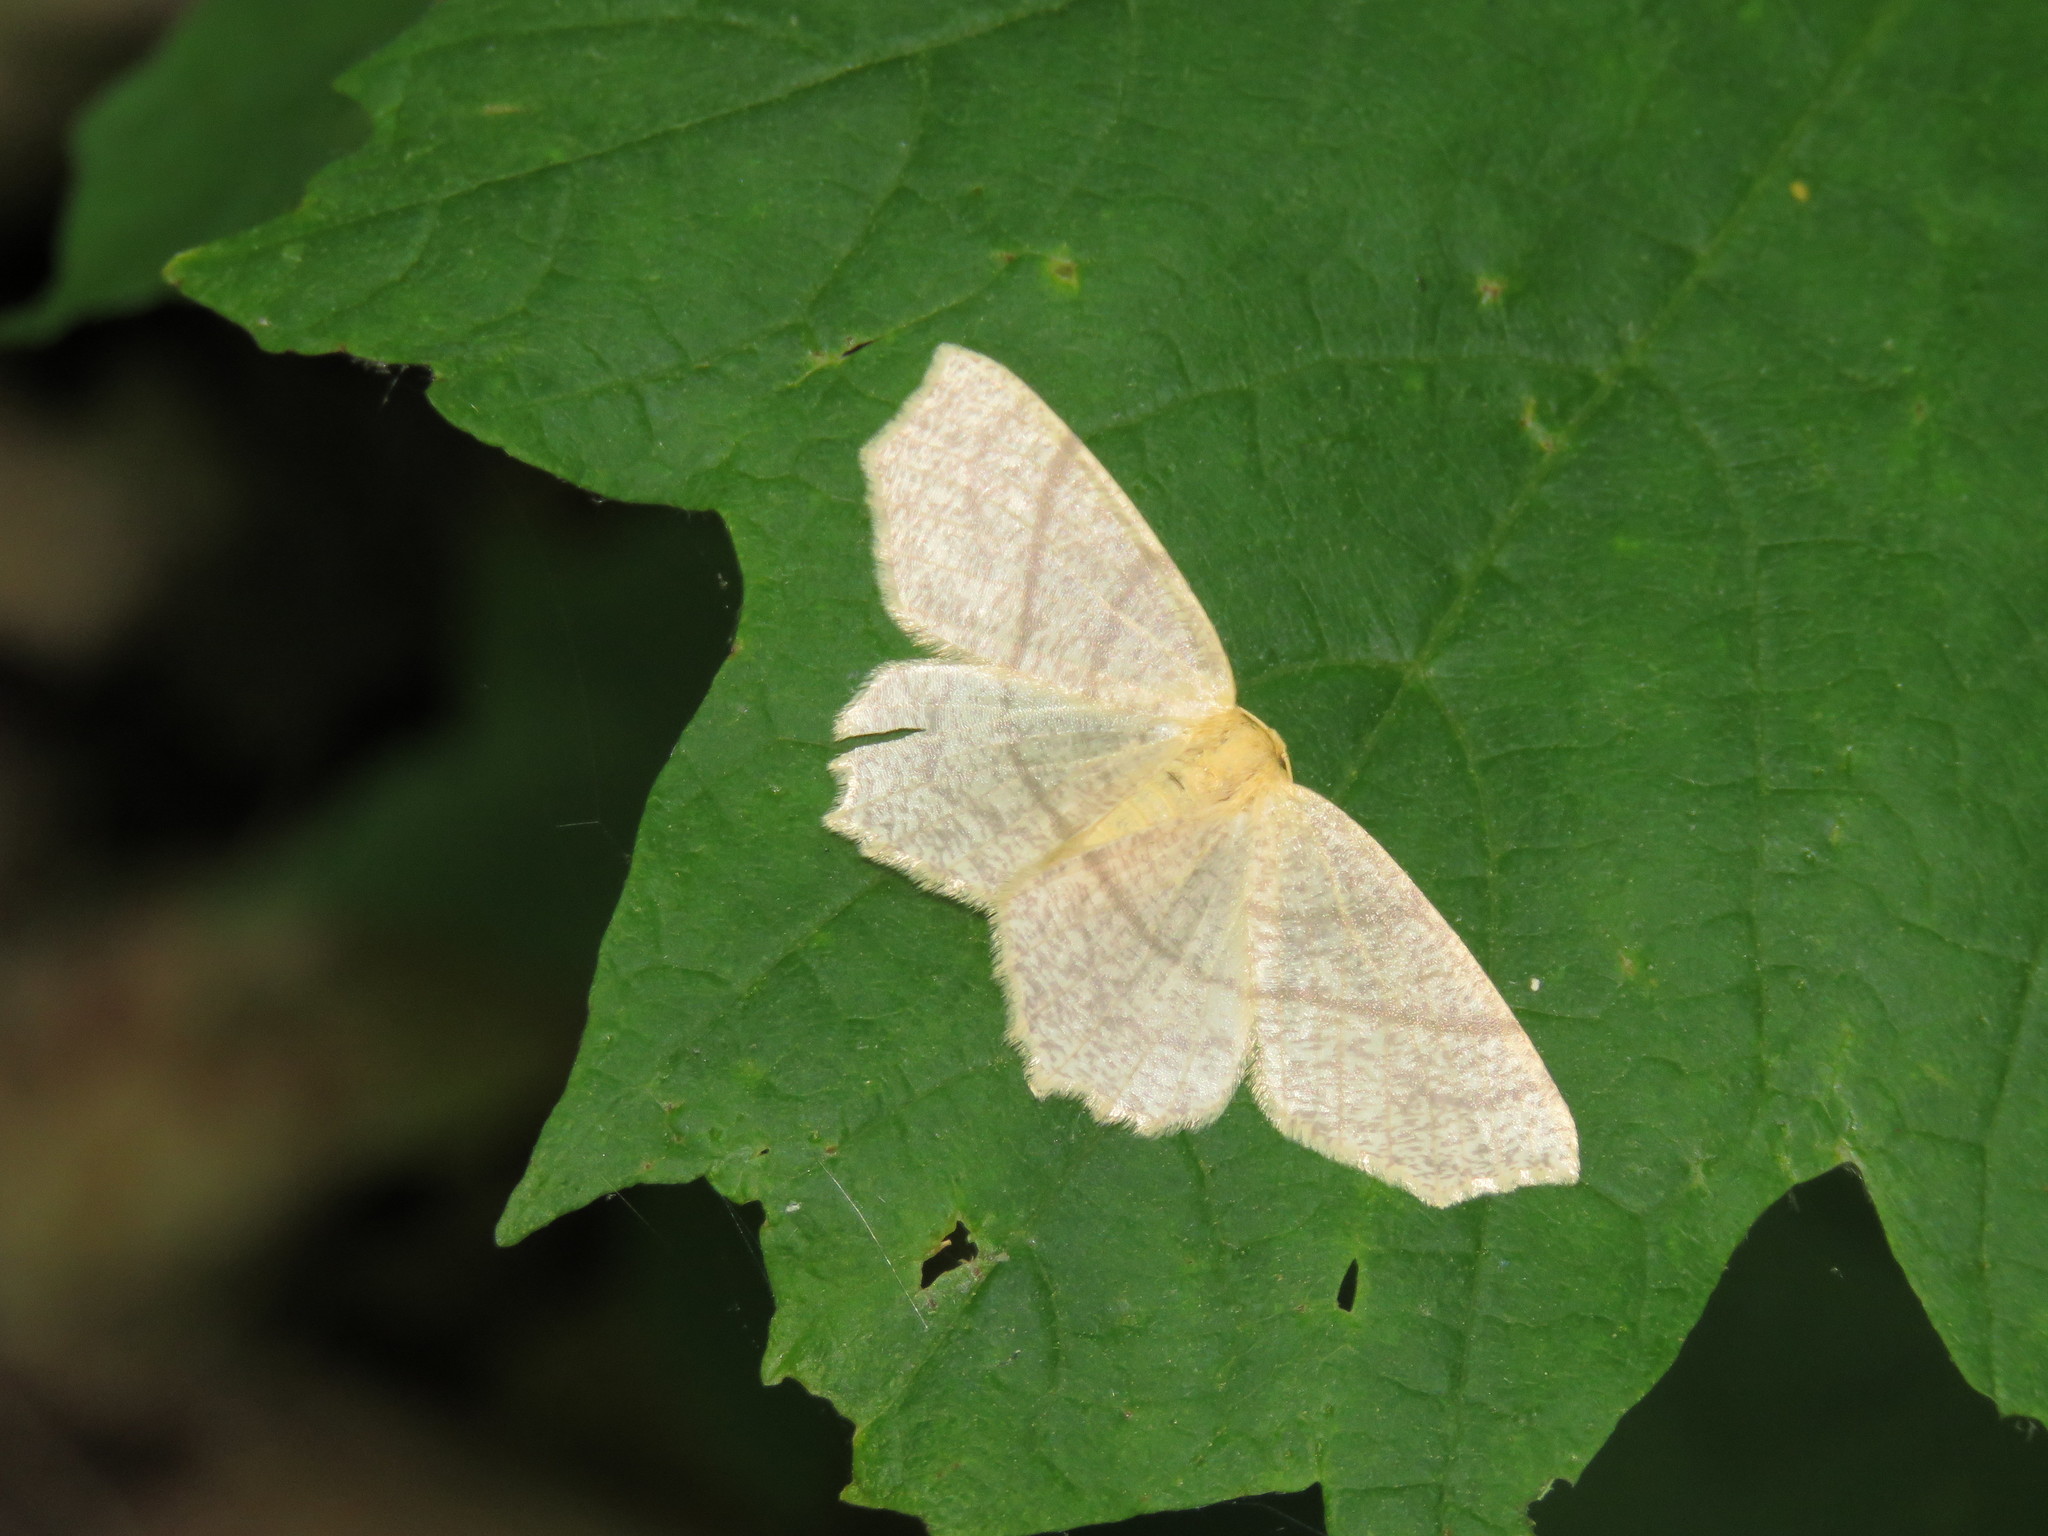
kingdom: Animalia
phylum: Arthropoda
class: Insecta
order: Lepidoptera
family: Geometridae
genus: Besma
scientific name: Besma endropiaria
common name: Straw besma
